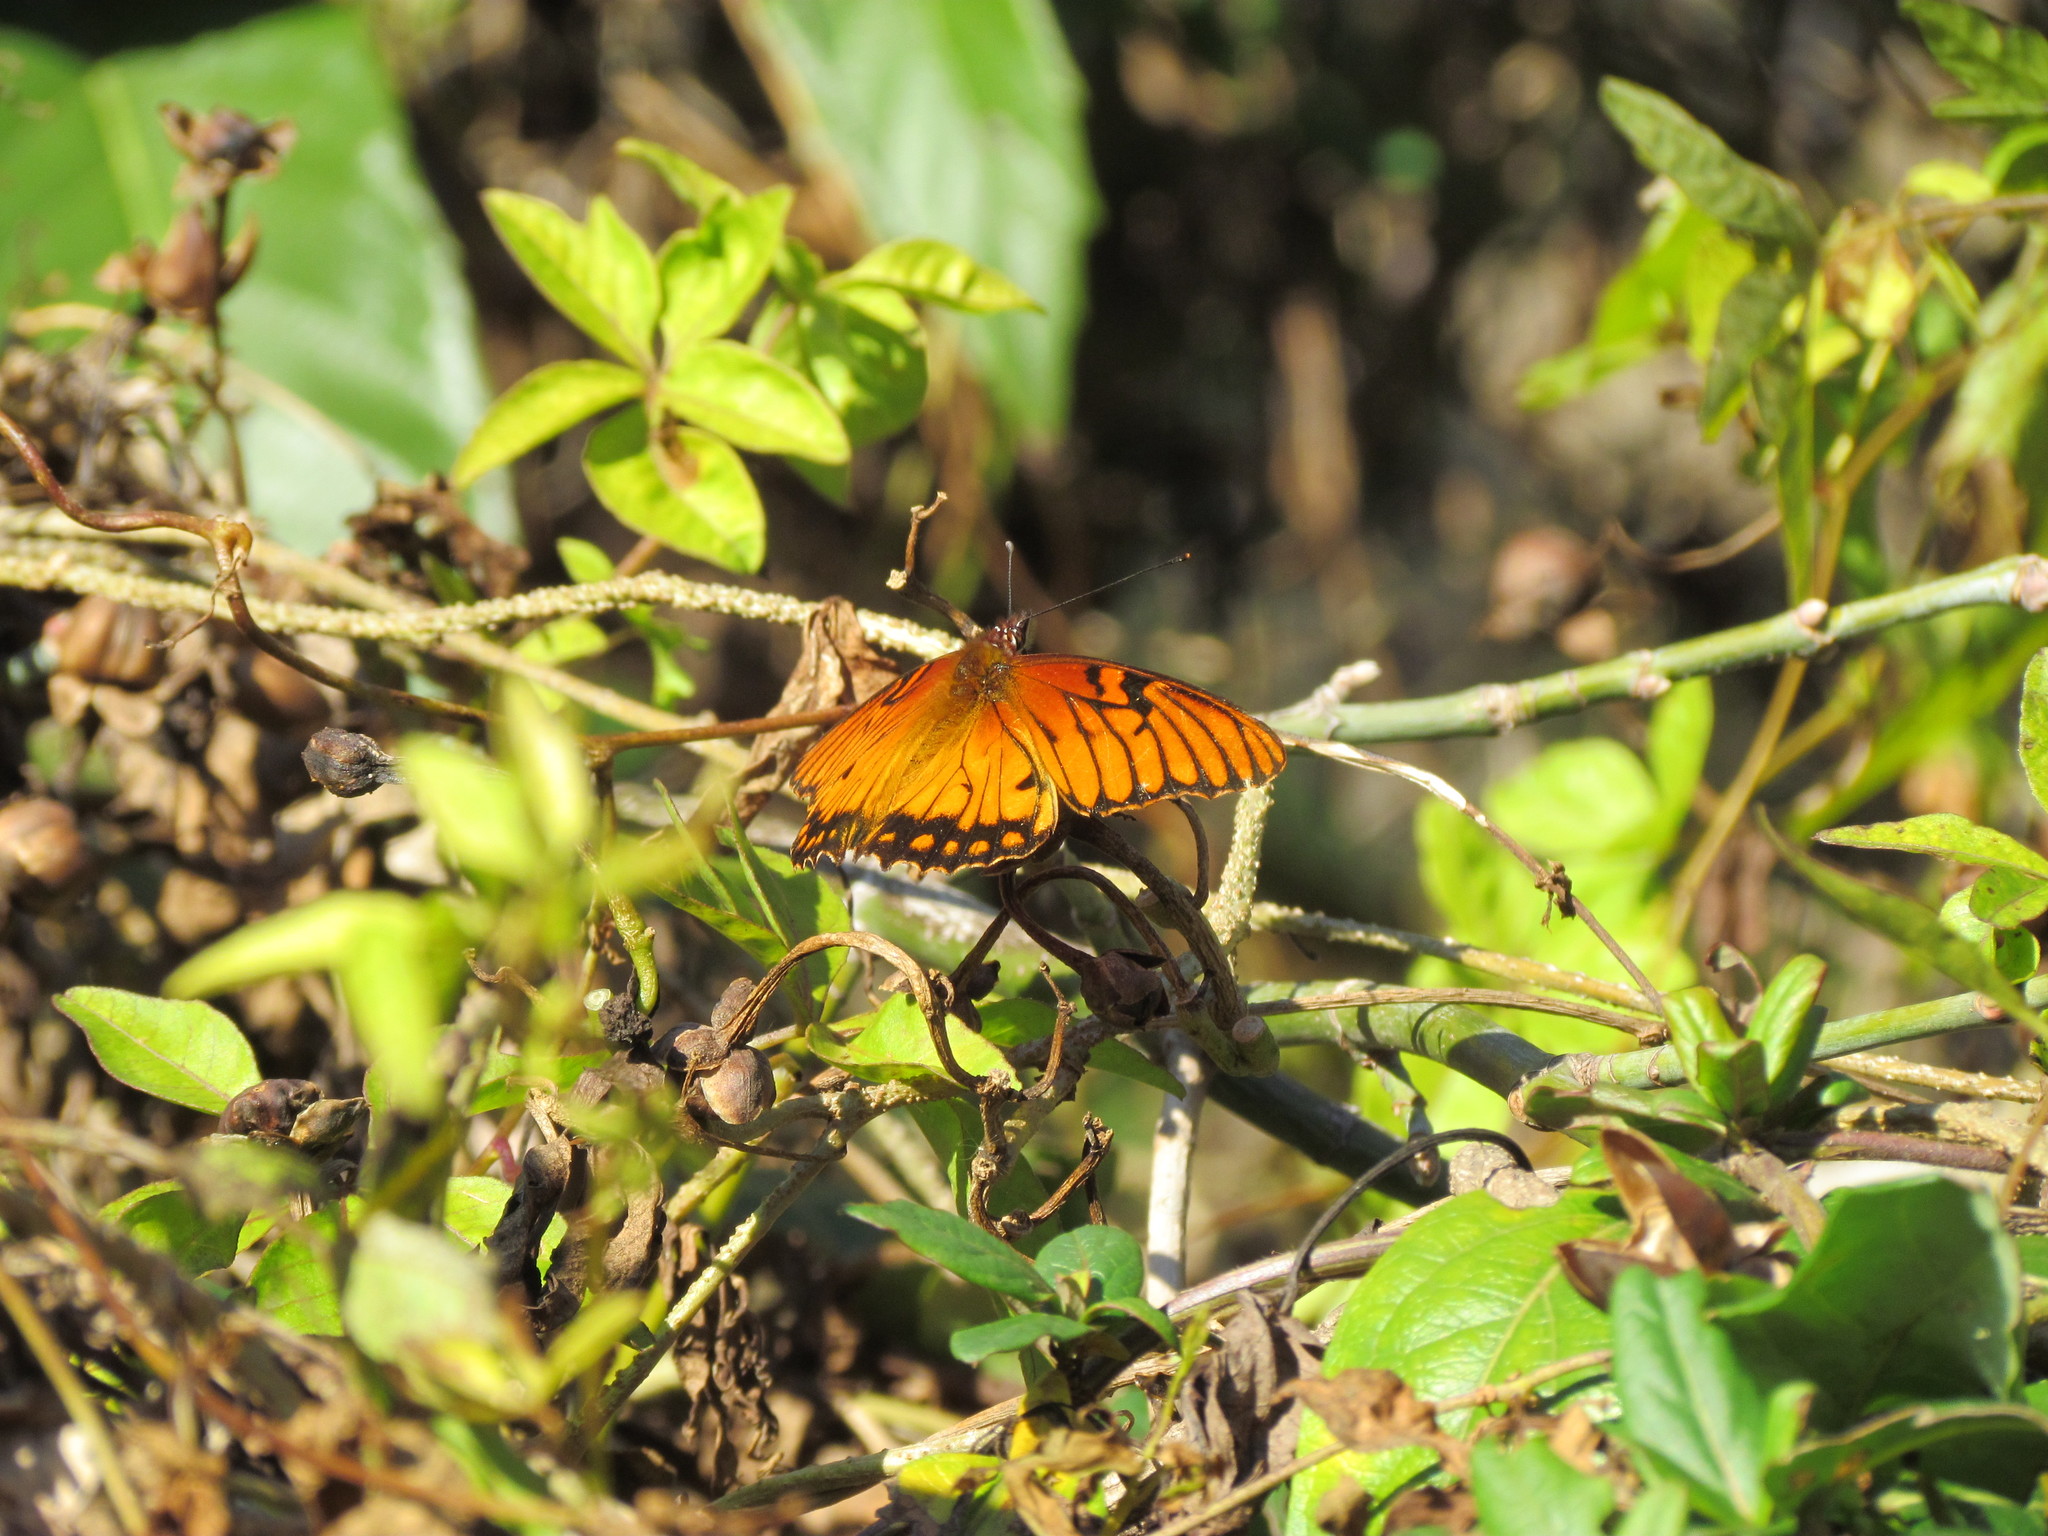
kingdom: Animalia
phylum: Arthropoda
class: Insecta
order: Lepidoptera
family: Nymphalidae
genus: Dione
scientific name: Dione moneta
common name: Mexican silverspot
